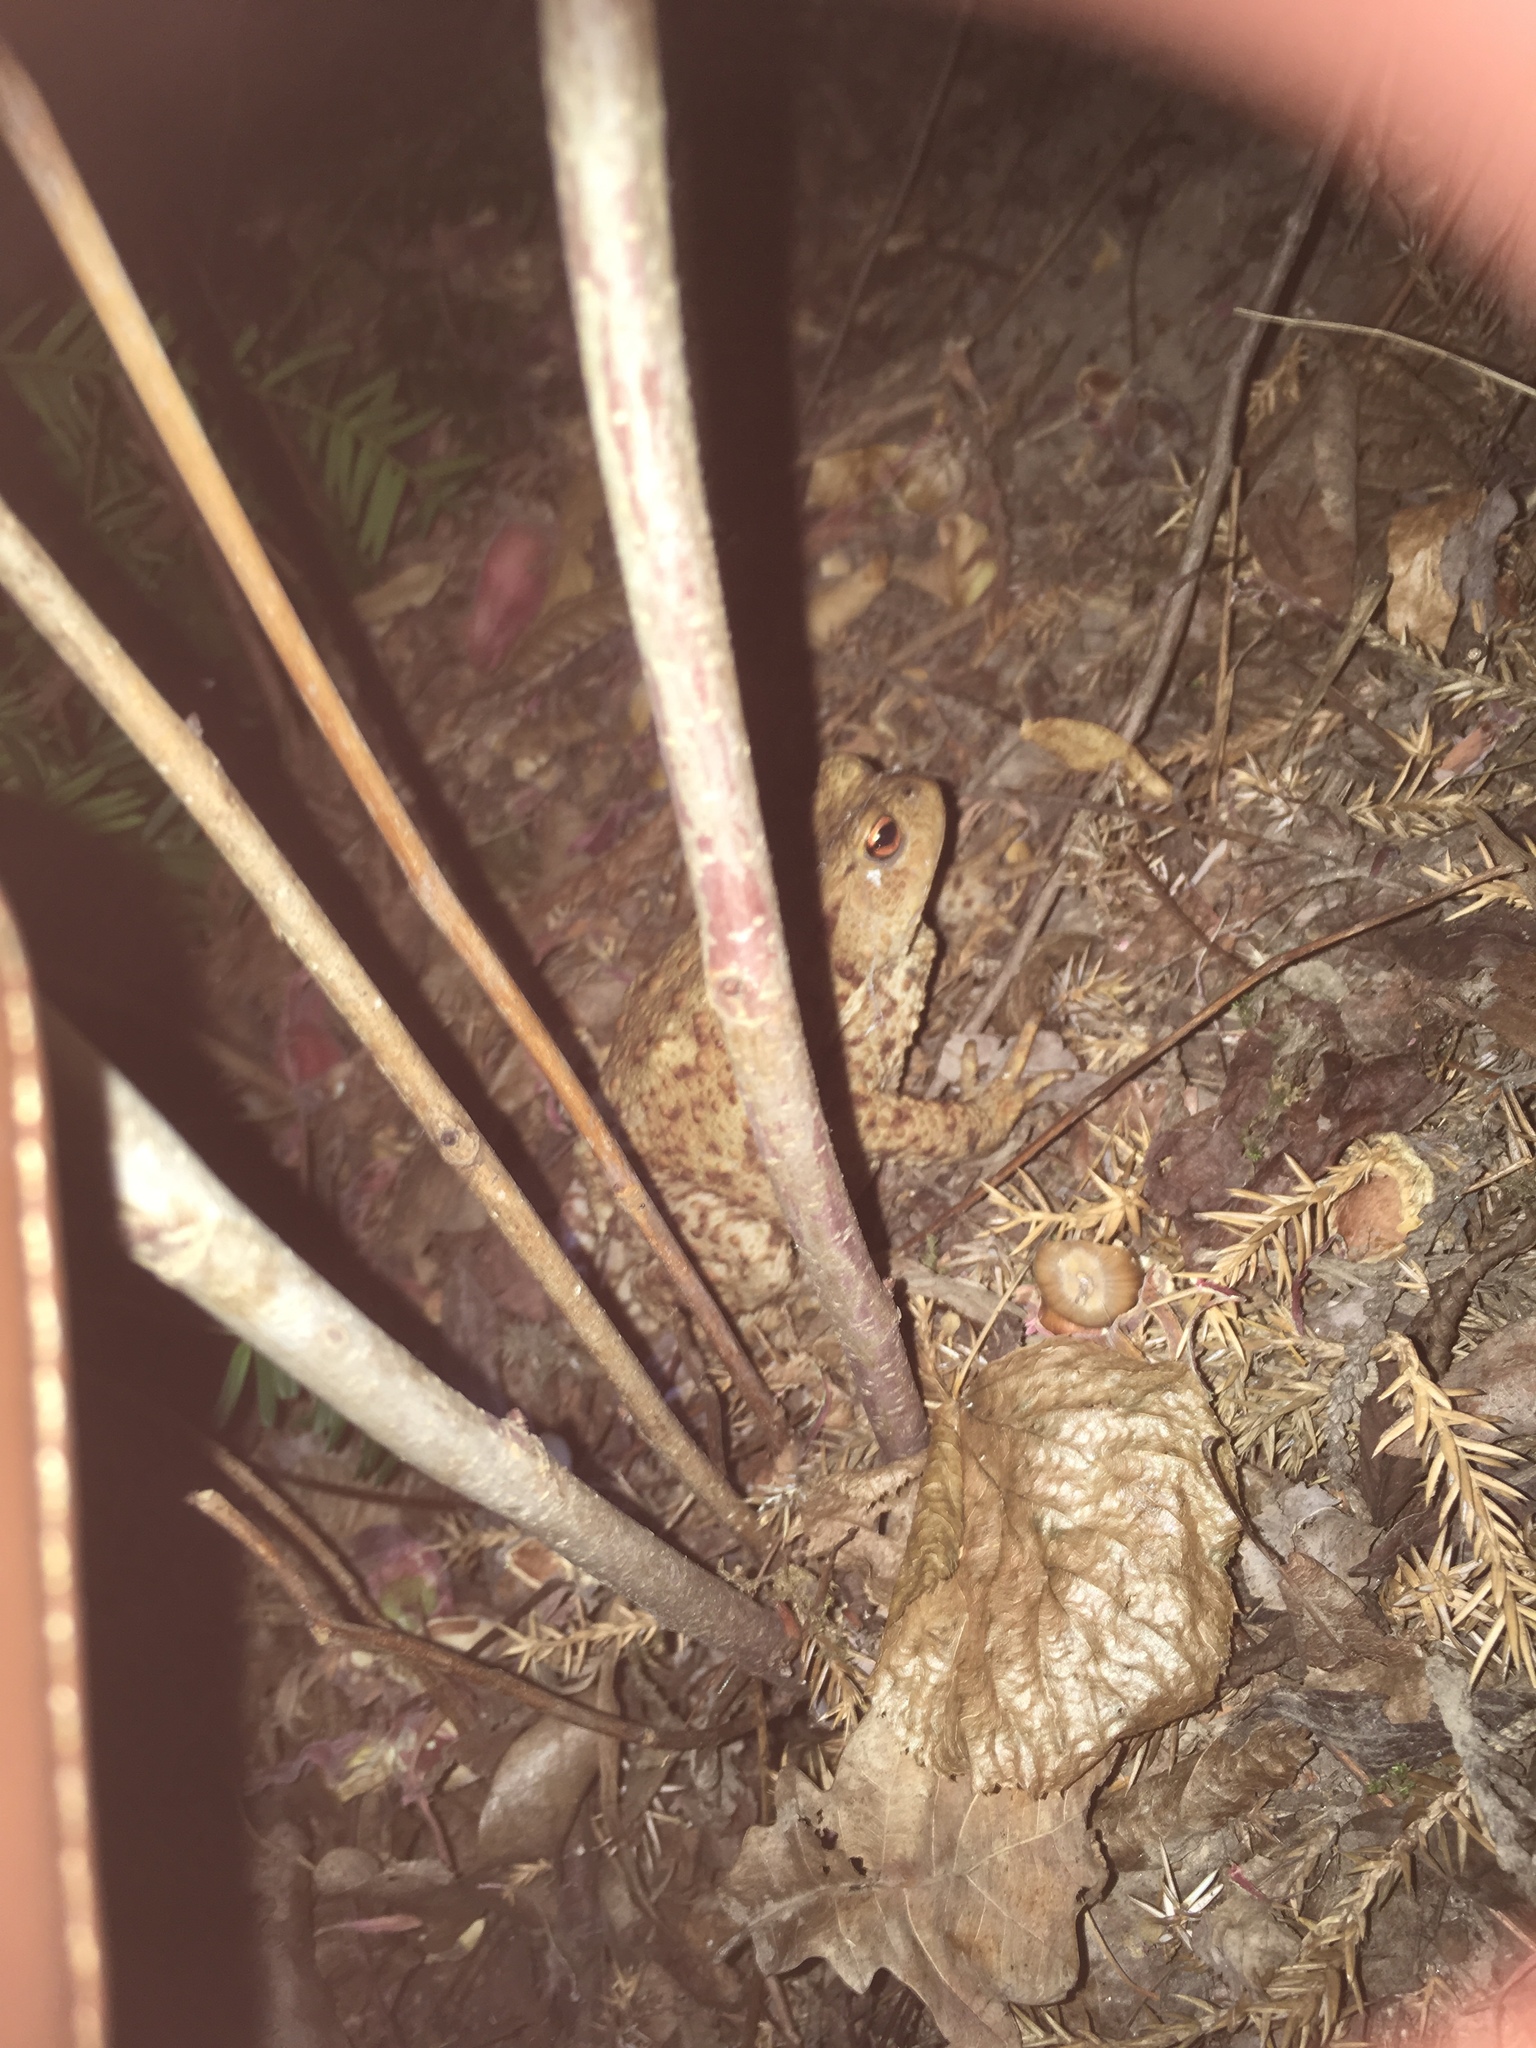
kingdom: Animalia
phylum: Chordata
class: Amphibia
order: Anura
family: Bufonidae
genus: Bufo
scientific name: Bufo bufo
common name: Common toad
